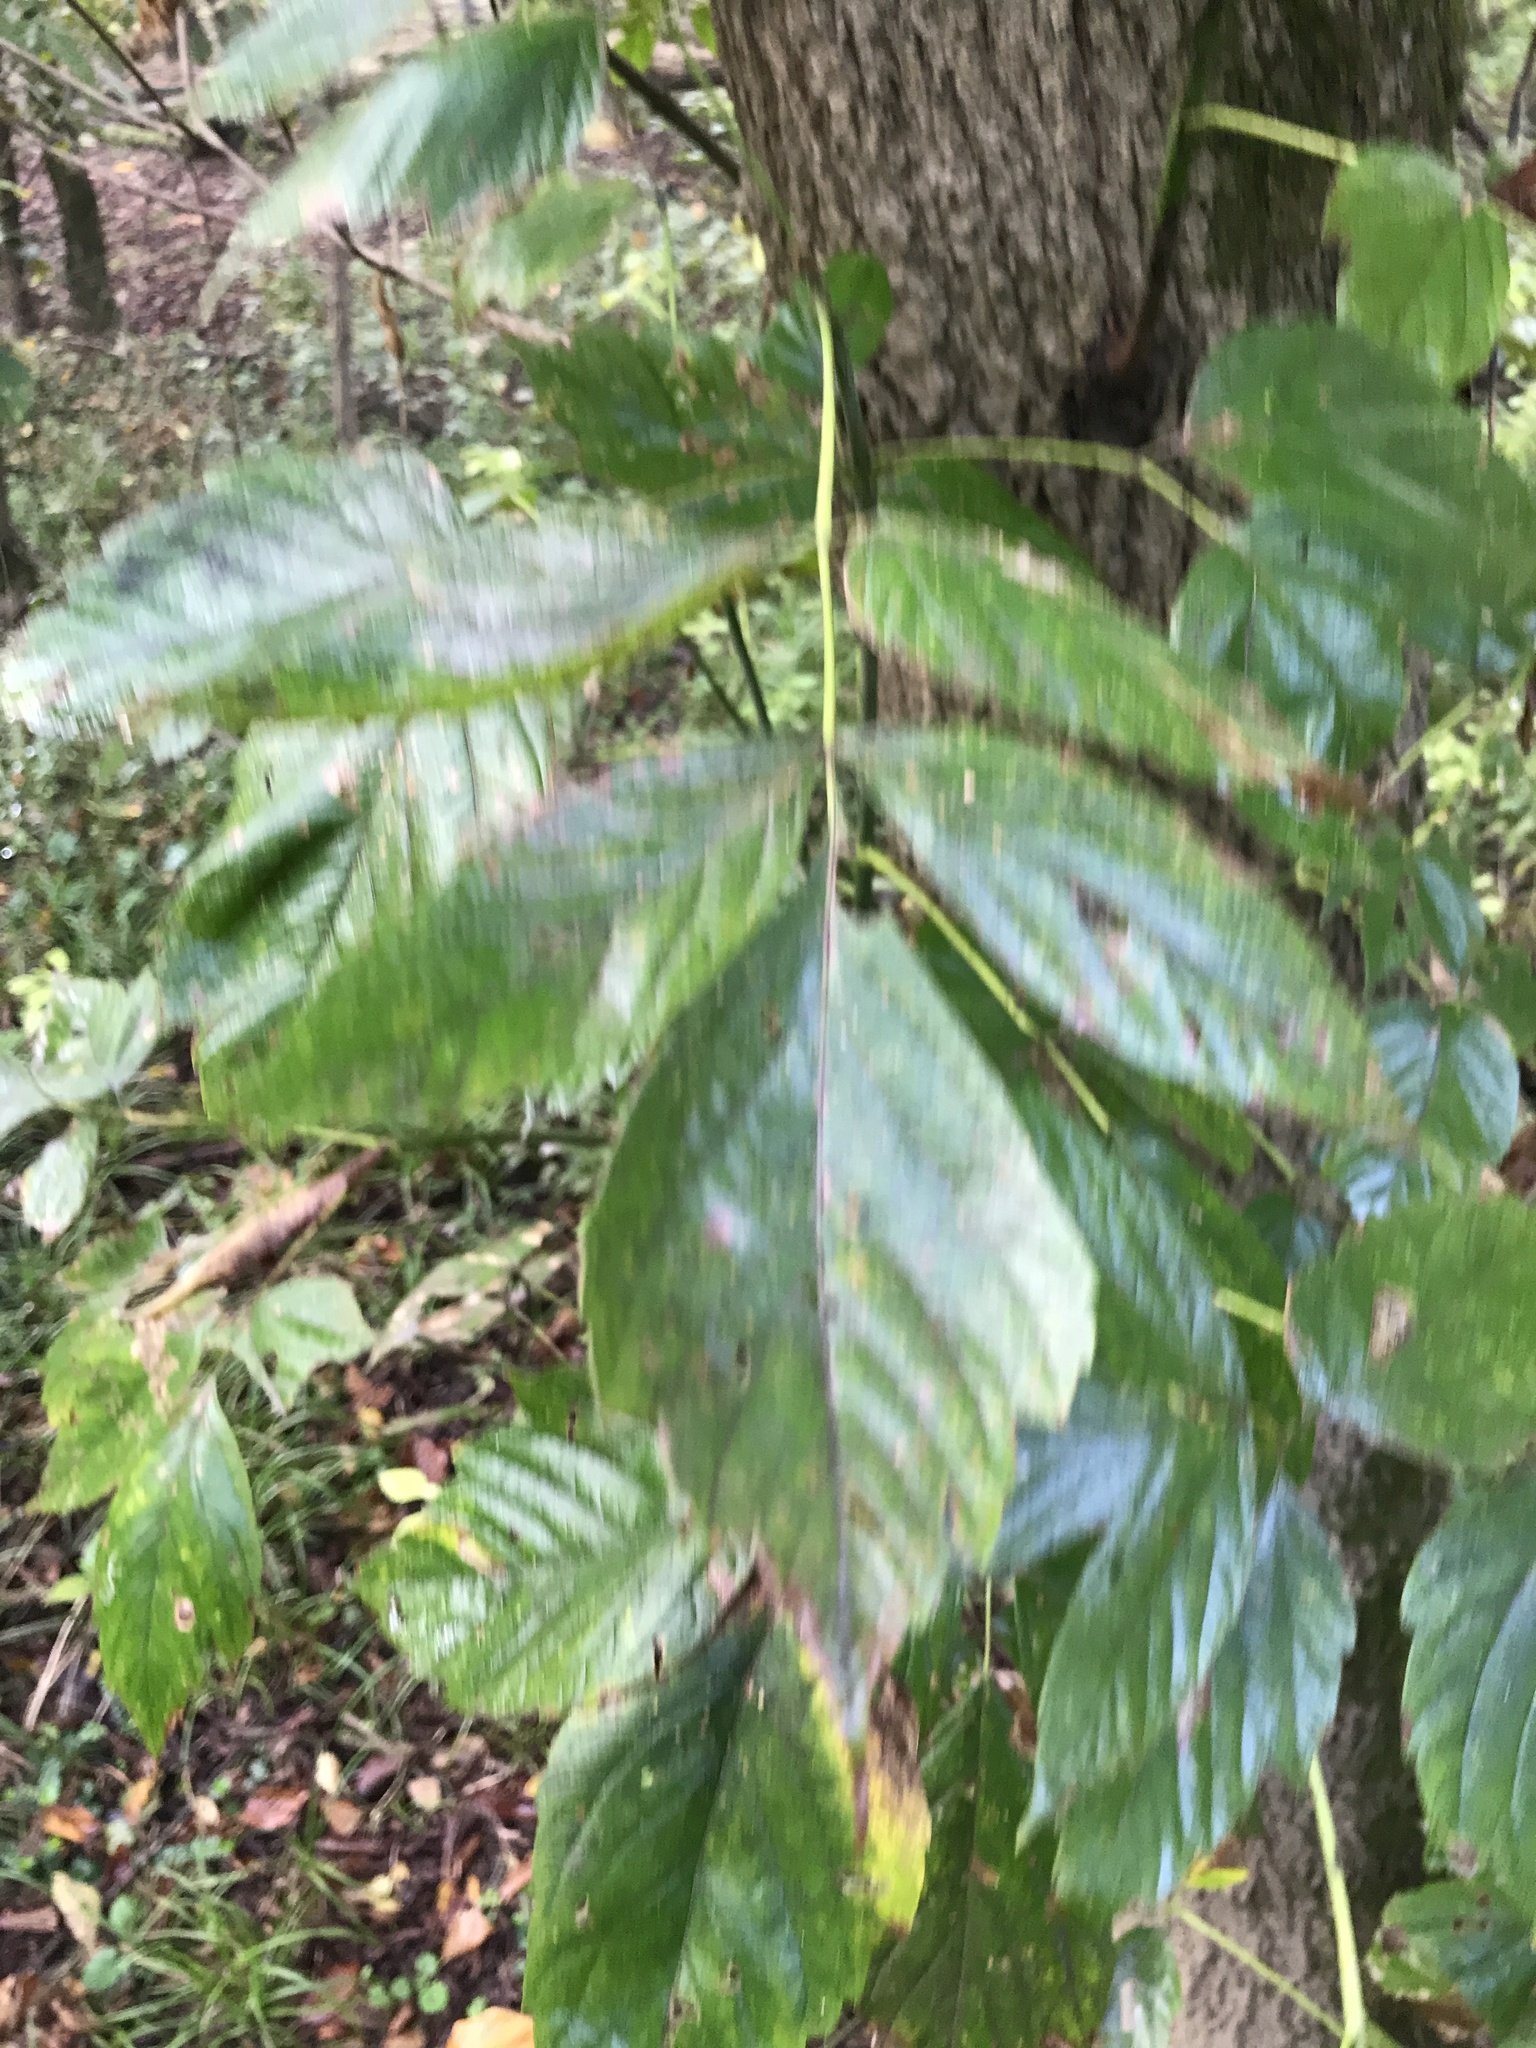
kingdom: Plantae
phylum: Tracheophyta
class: Magnoliopsida
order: Sapindales
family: Sapindaceae
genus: Acer
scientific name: Acer negundo
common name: Ashleaf maple
